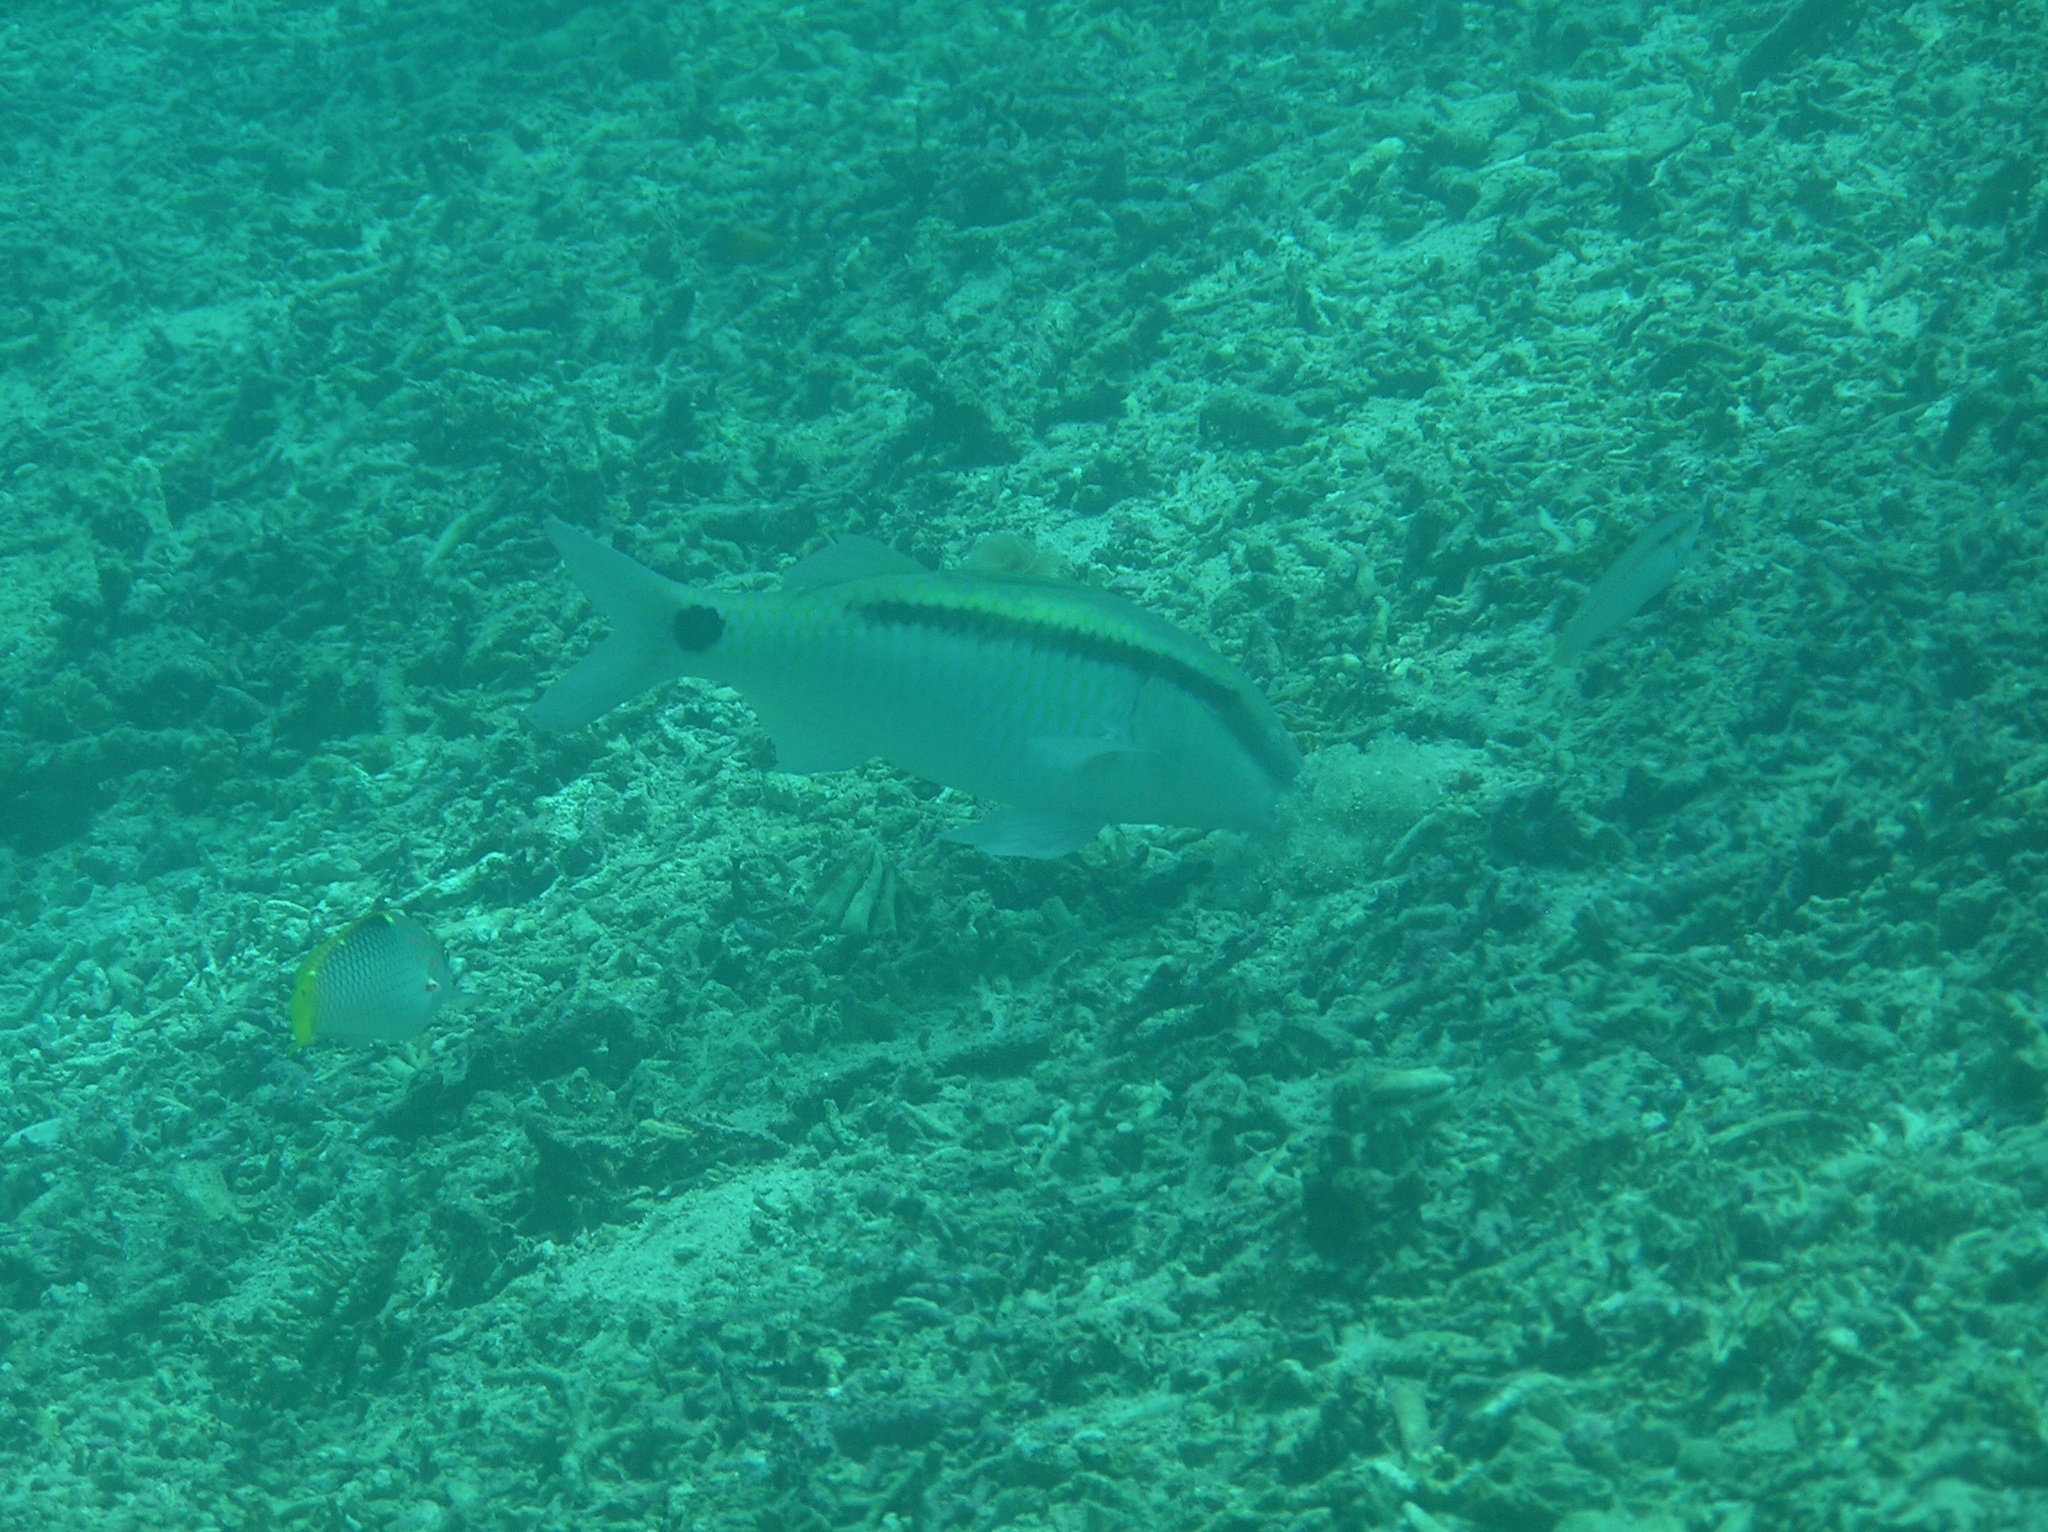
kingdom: Animalia
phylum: Chordata
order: Perciformes
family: Mullidae
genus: Parupeneus
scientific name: Parupeneus barberinus
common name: Dash-and-dot goatfish
